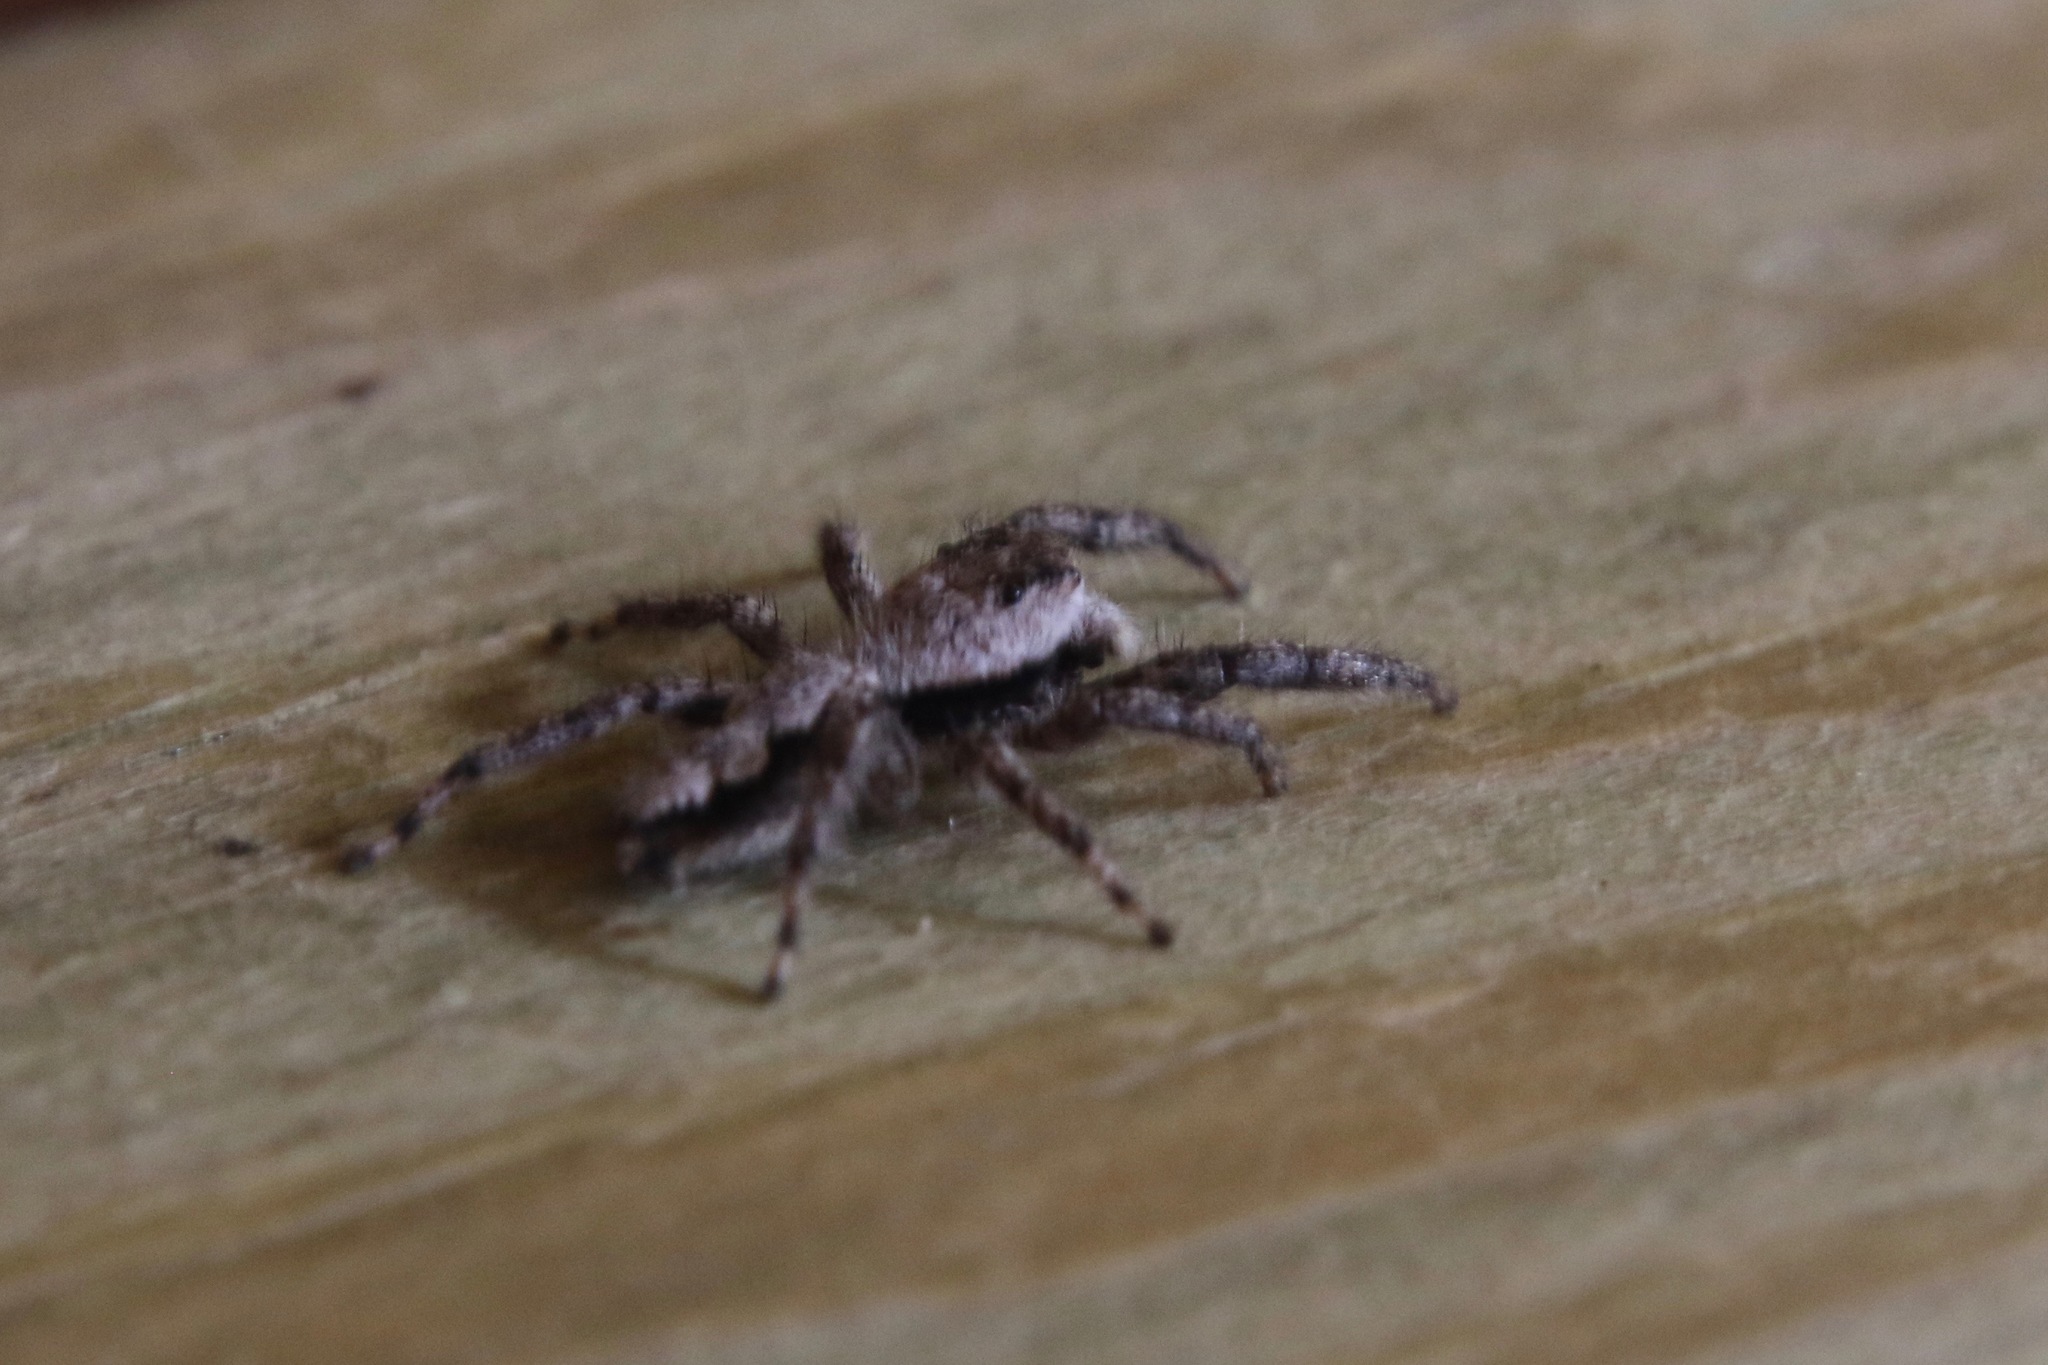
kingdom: Animalia
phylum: Arthropoda
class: Arachnida
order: Araneae
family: Salticidae
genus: Platycryptus
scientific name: Platycryptus undatus
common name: Tan jumping spider
